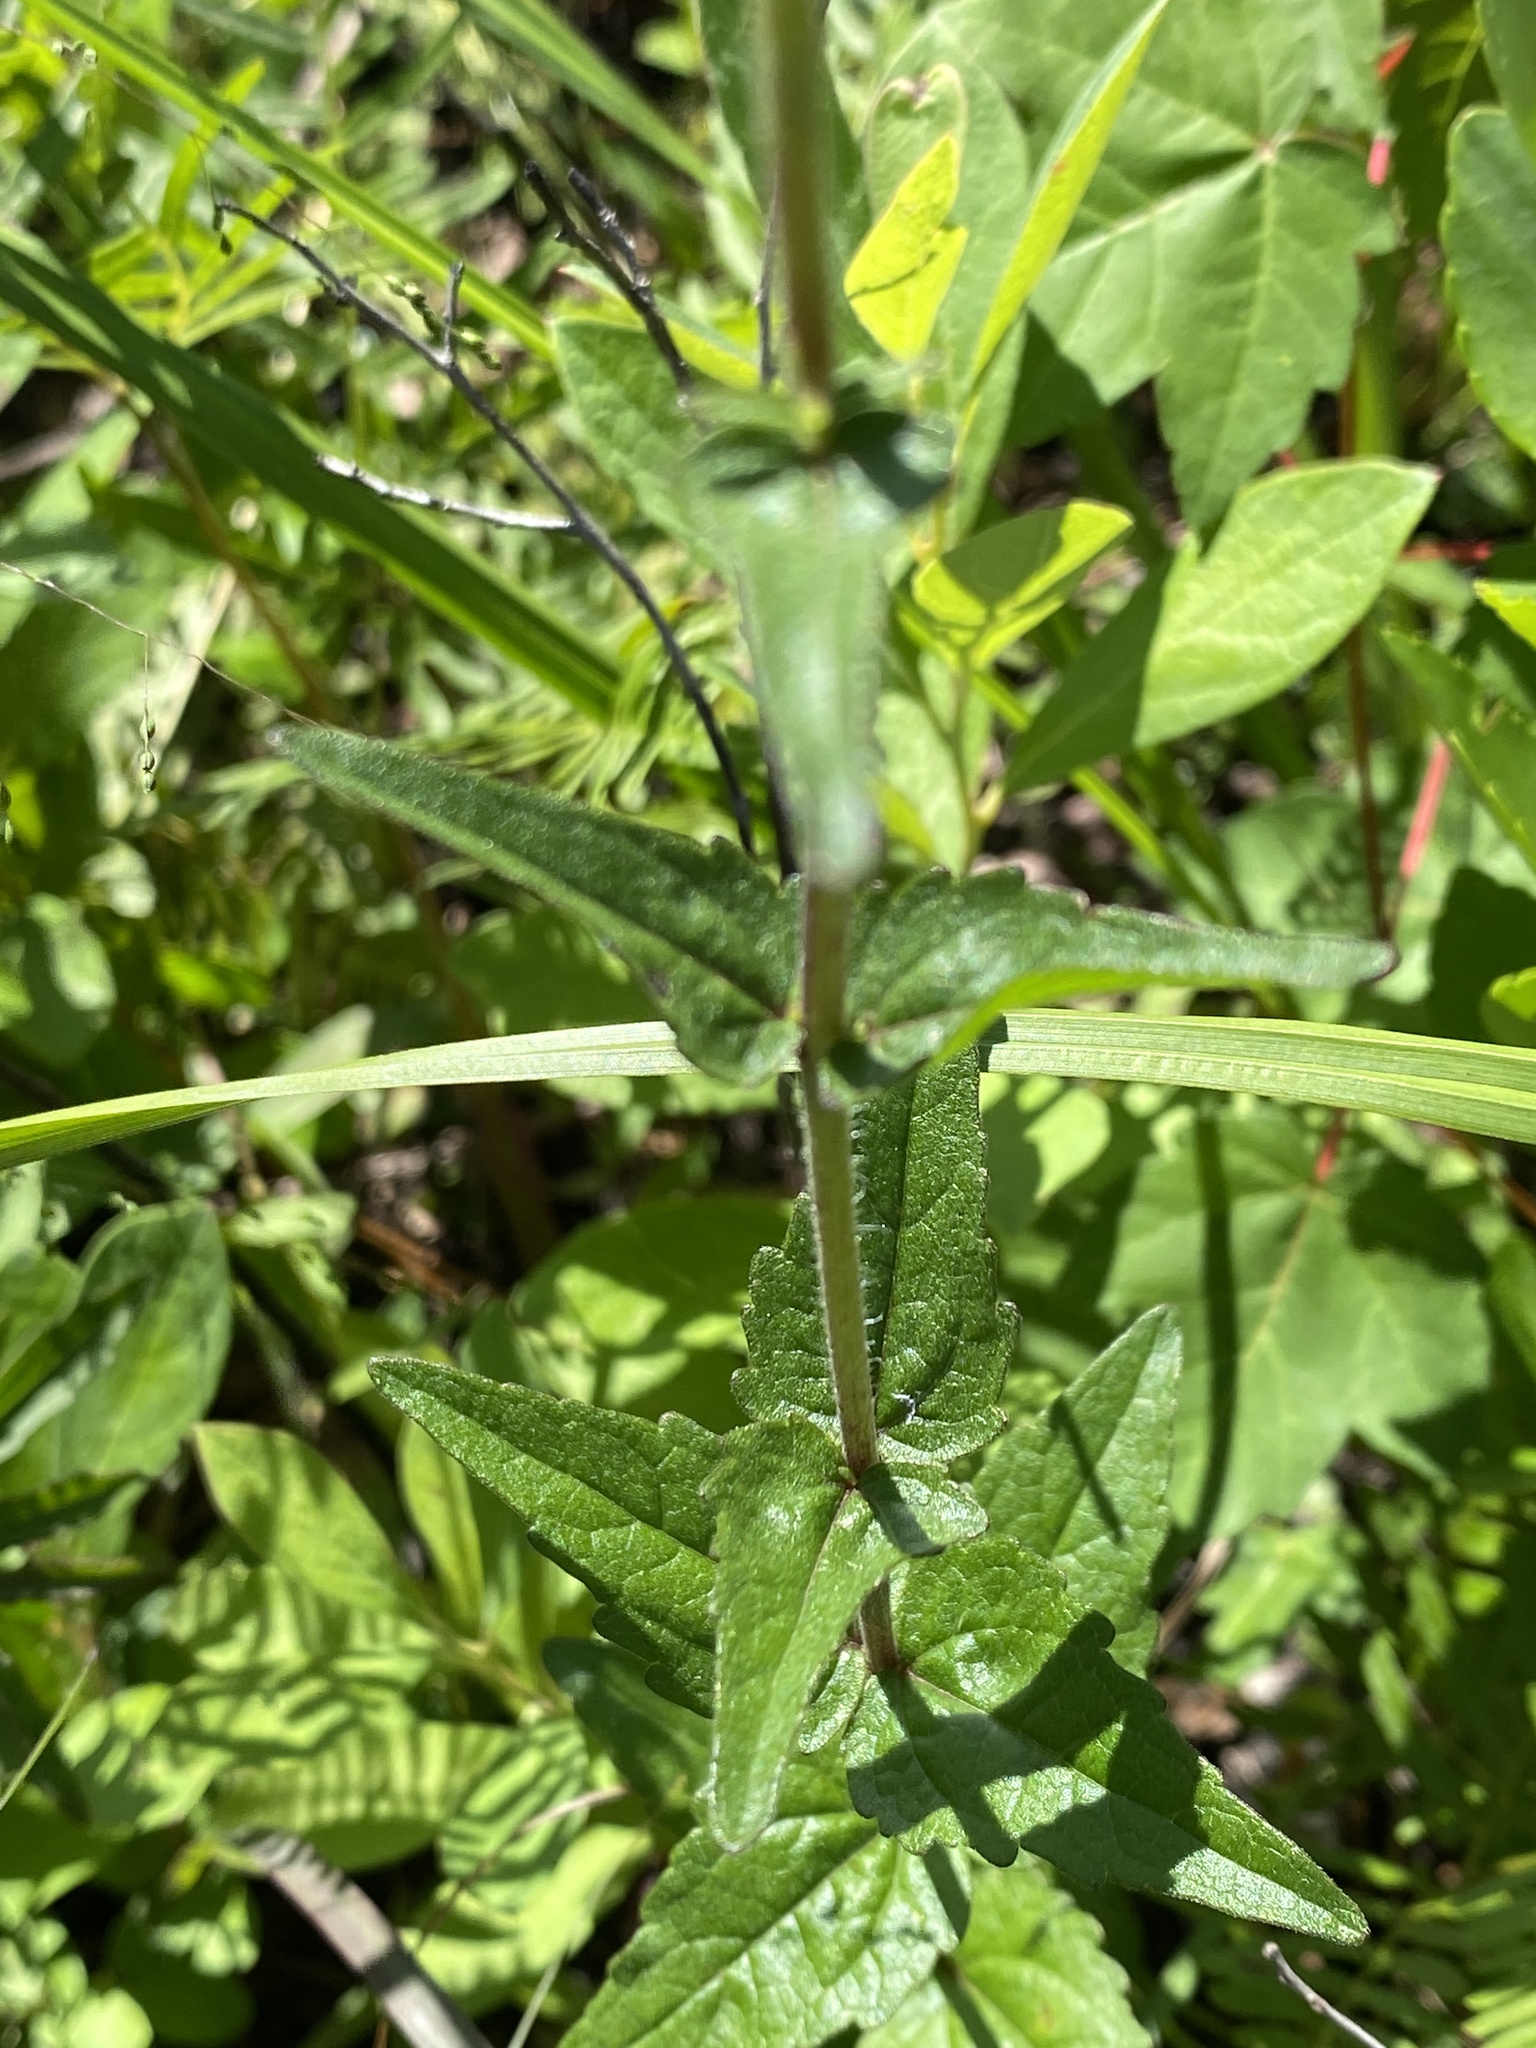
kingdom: Plantae
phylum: Tracheophyta
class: Magnoliopsida
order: Asterales
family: Asteraceae
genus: Eupatorium
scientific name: Eupatorium pilosum
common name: Rough boneset
